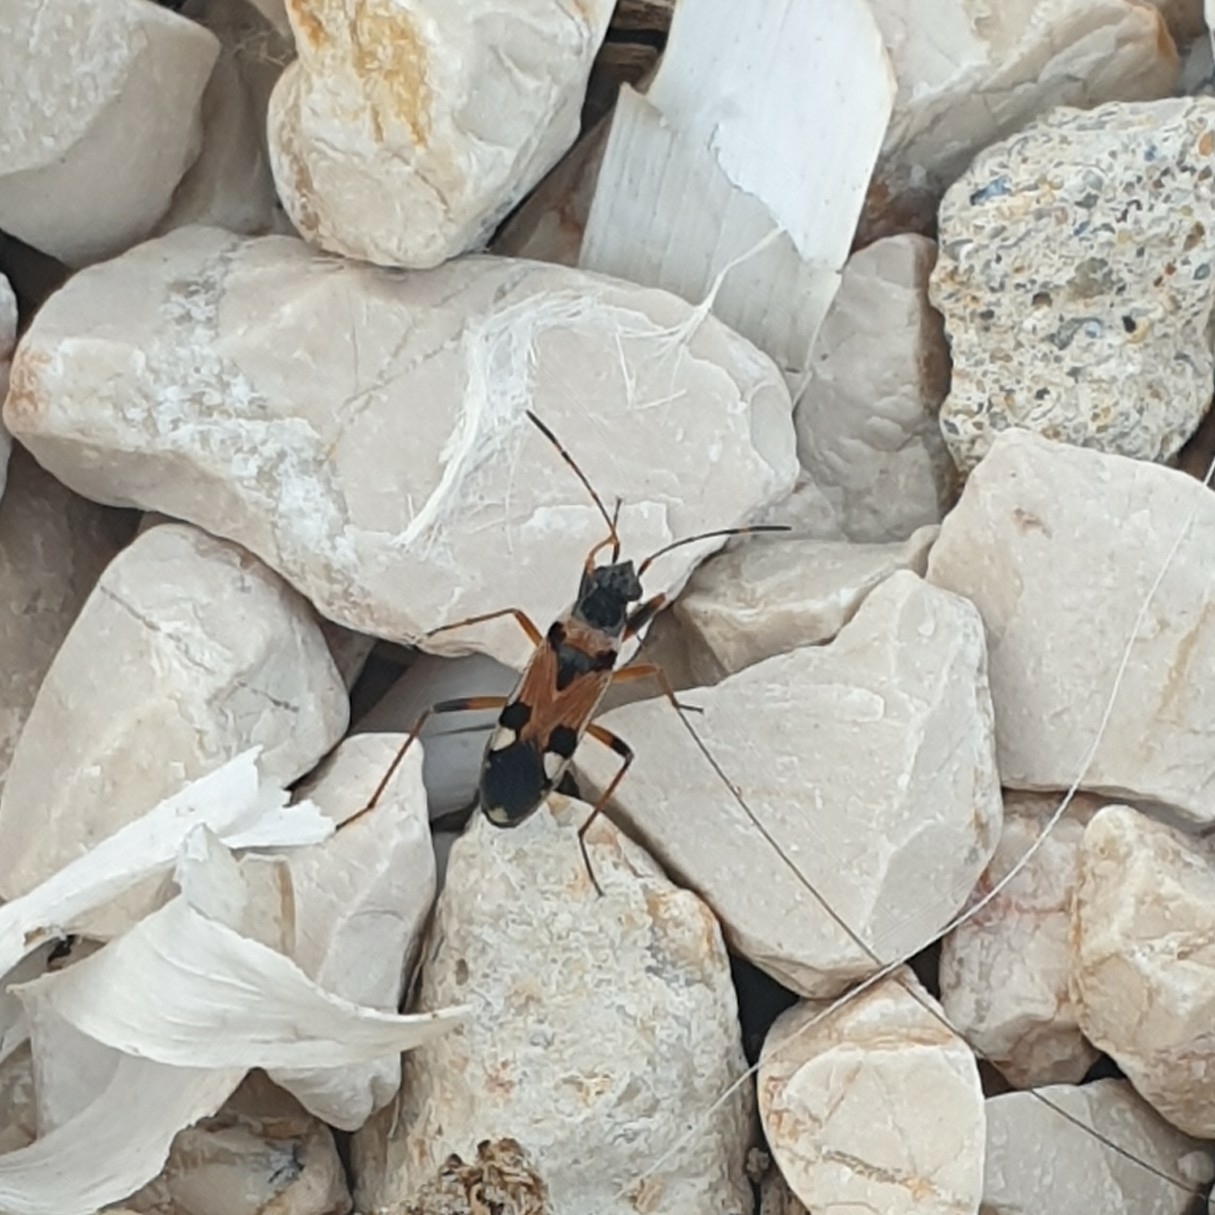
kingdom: Animalia
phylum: Arthropoda
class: Insecta
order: Hemiptera
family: Rhyparochromidae
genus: Beosus
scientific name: Beosus quadripunctatus
